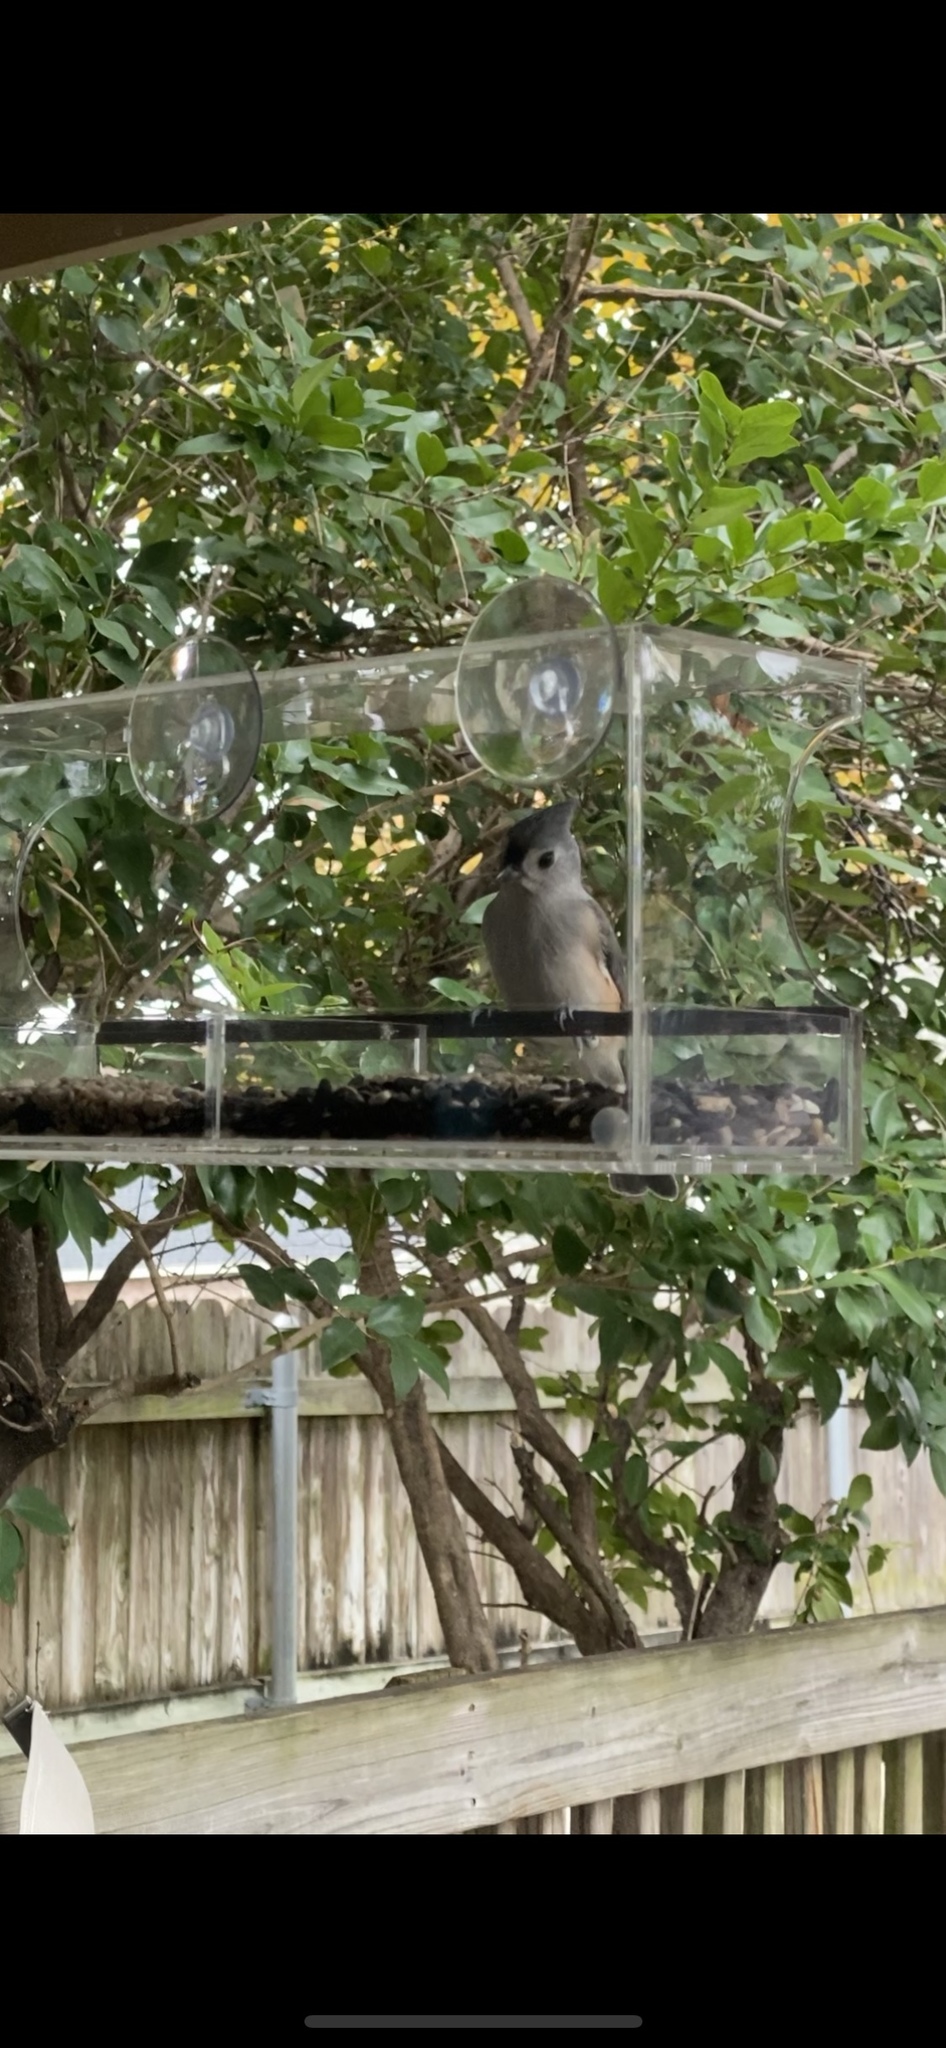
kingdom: Animalia
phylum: Chordata
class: Aves
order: Passeriformes
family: Paridae
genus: Baeolophus
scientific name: Baeolophus bicolor
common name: Tufted titmouse
